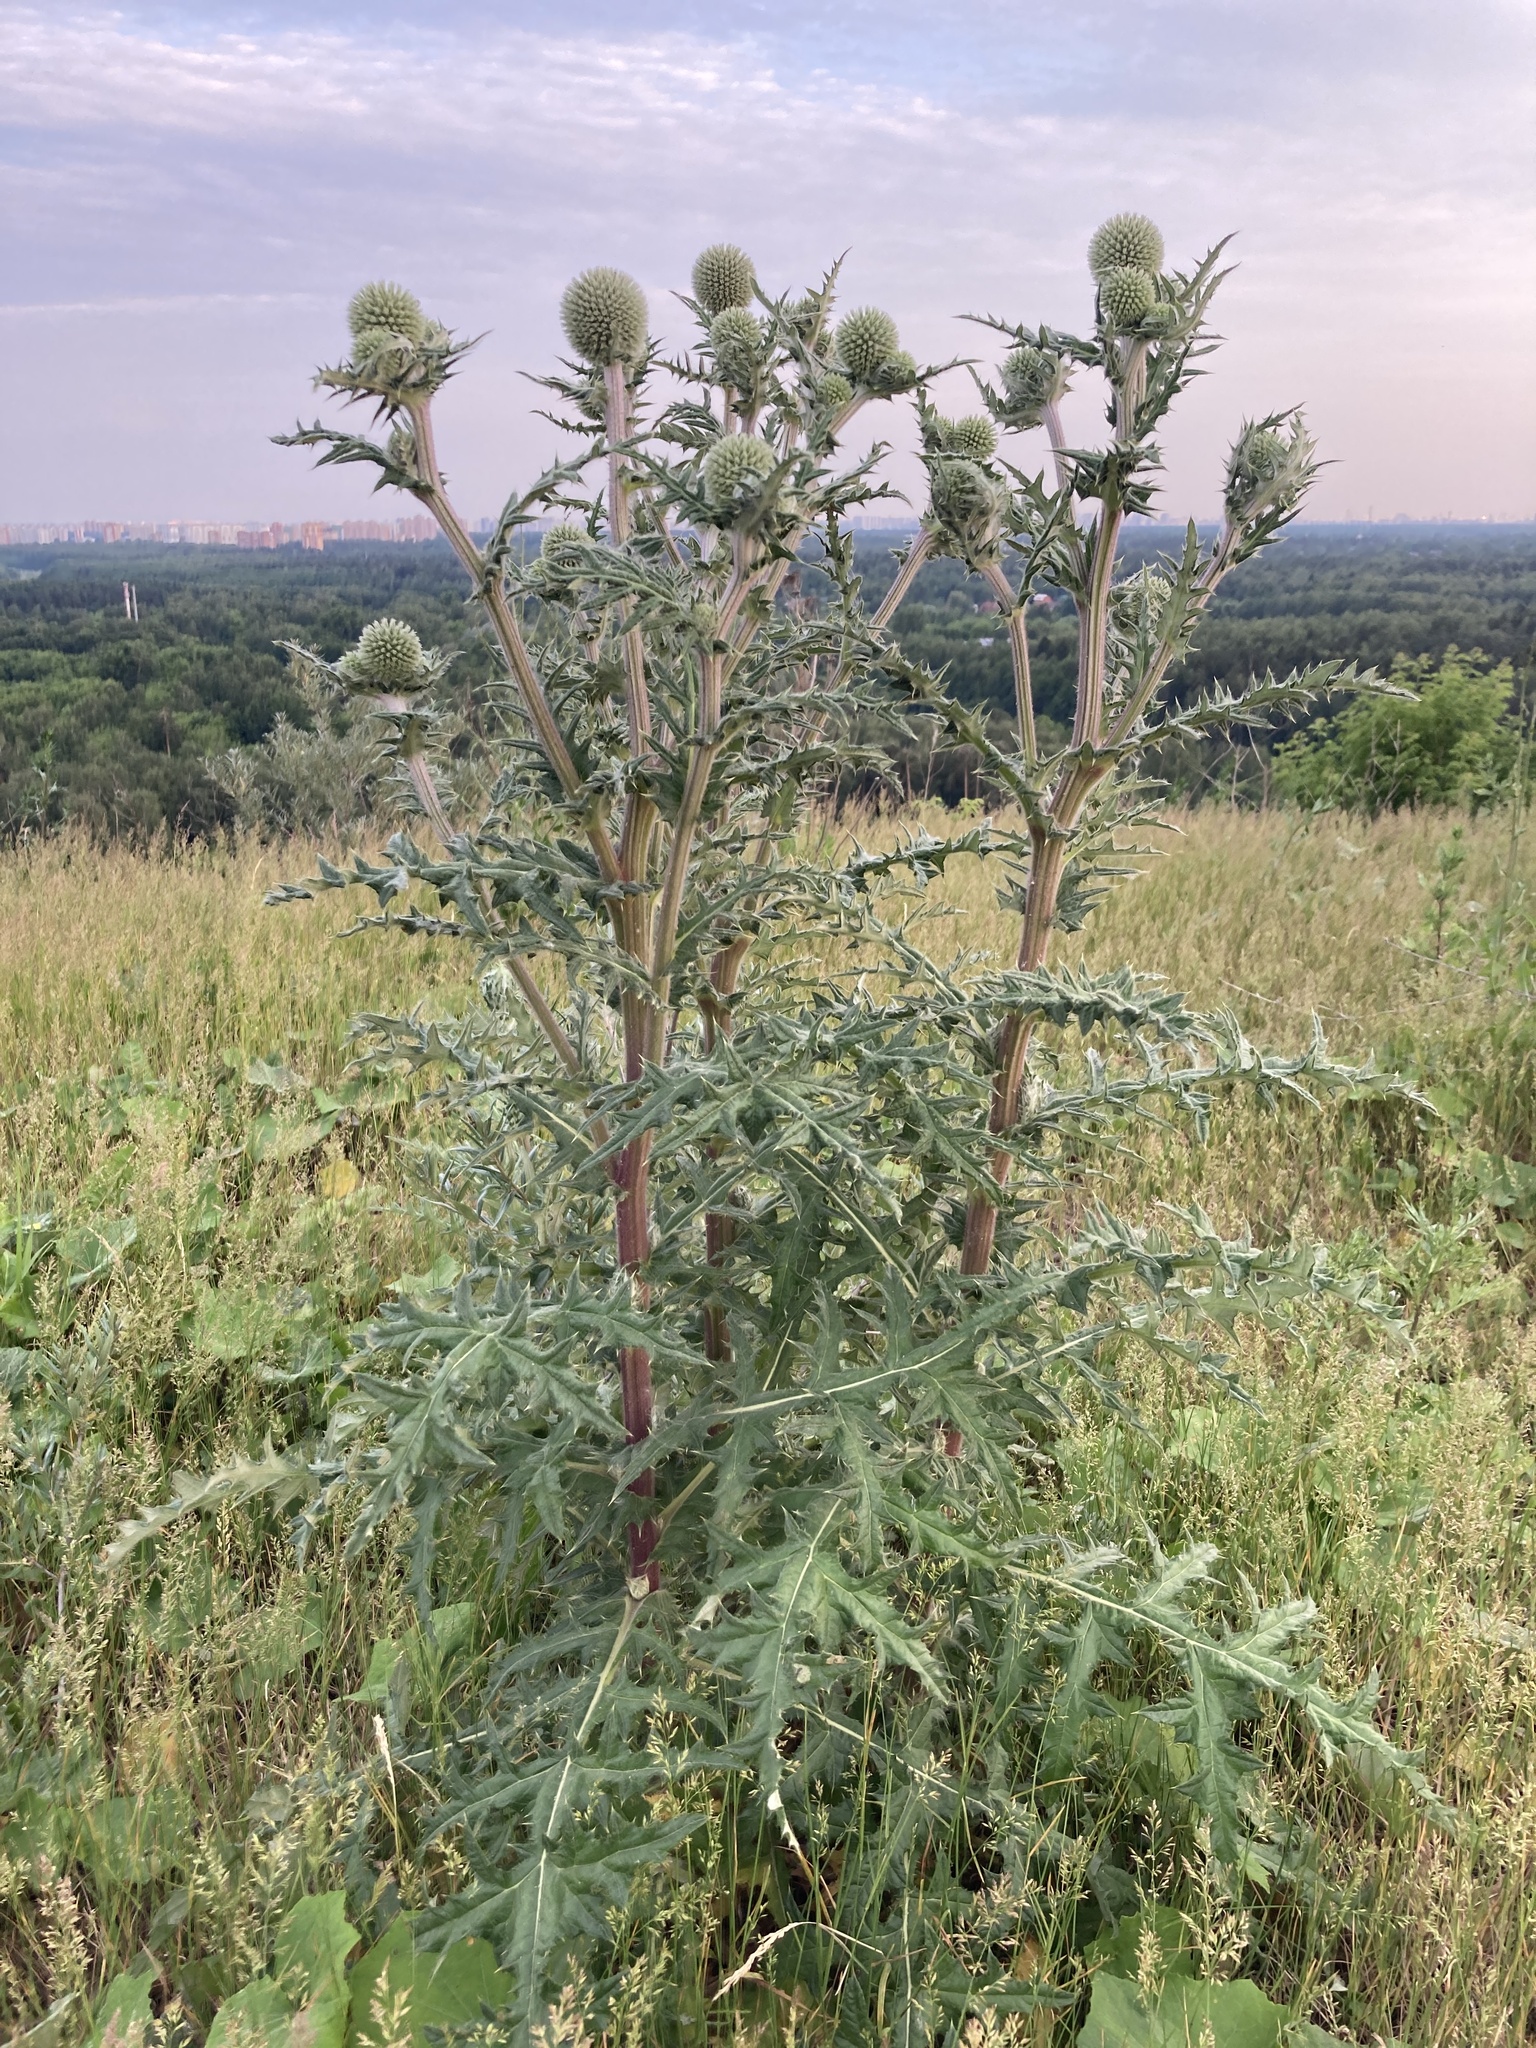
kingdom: Plantae
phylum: Tracheophyta
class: Magnoliopsida
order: Asterales
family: Asteraceae
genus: Echinops
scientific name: Echinops sphaerocephalus
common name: Glandular globe-thistle
